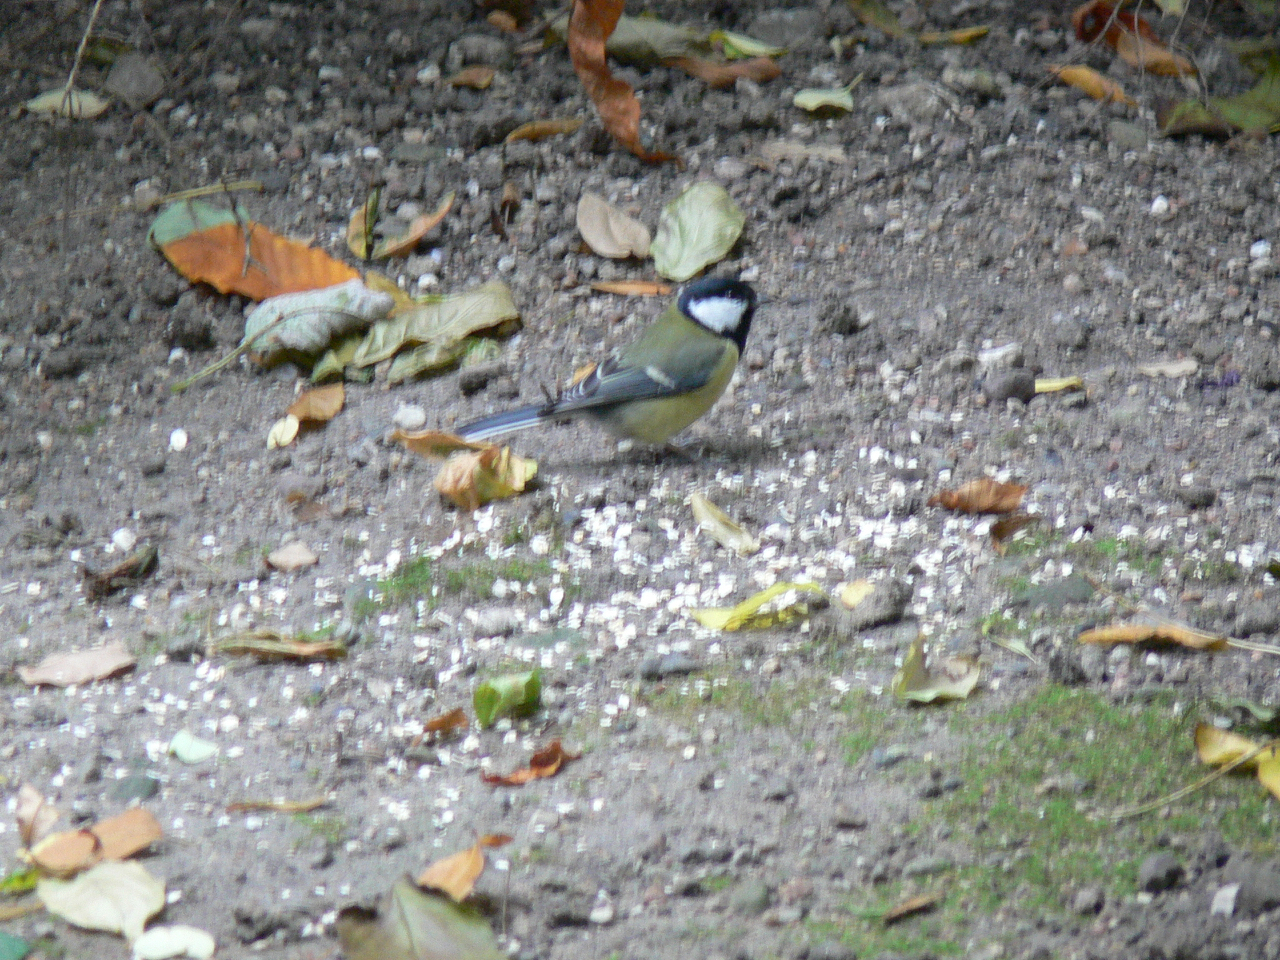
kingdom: Animalia
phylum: Chordata
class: Aves
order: Passeriformes
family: Paridae
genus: Parus
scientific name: Parus major
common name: Great tit
